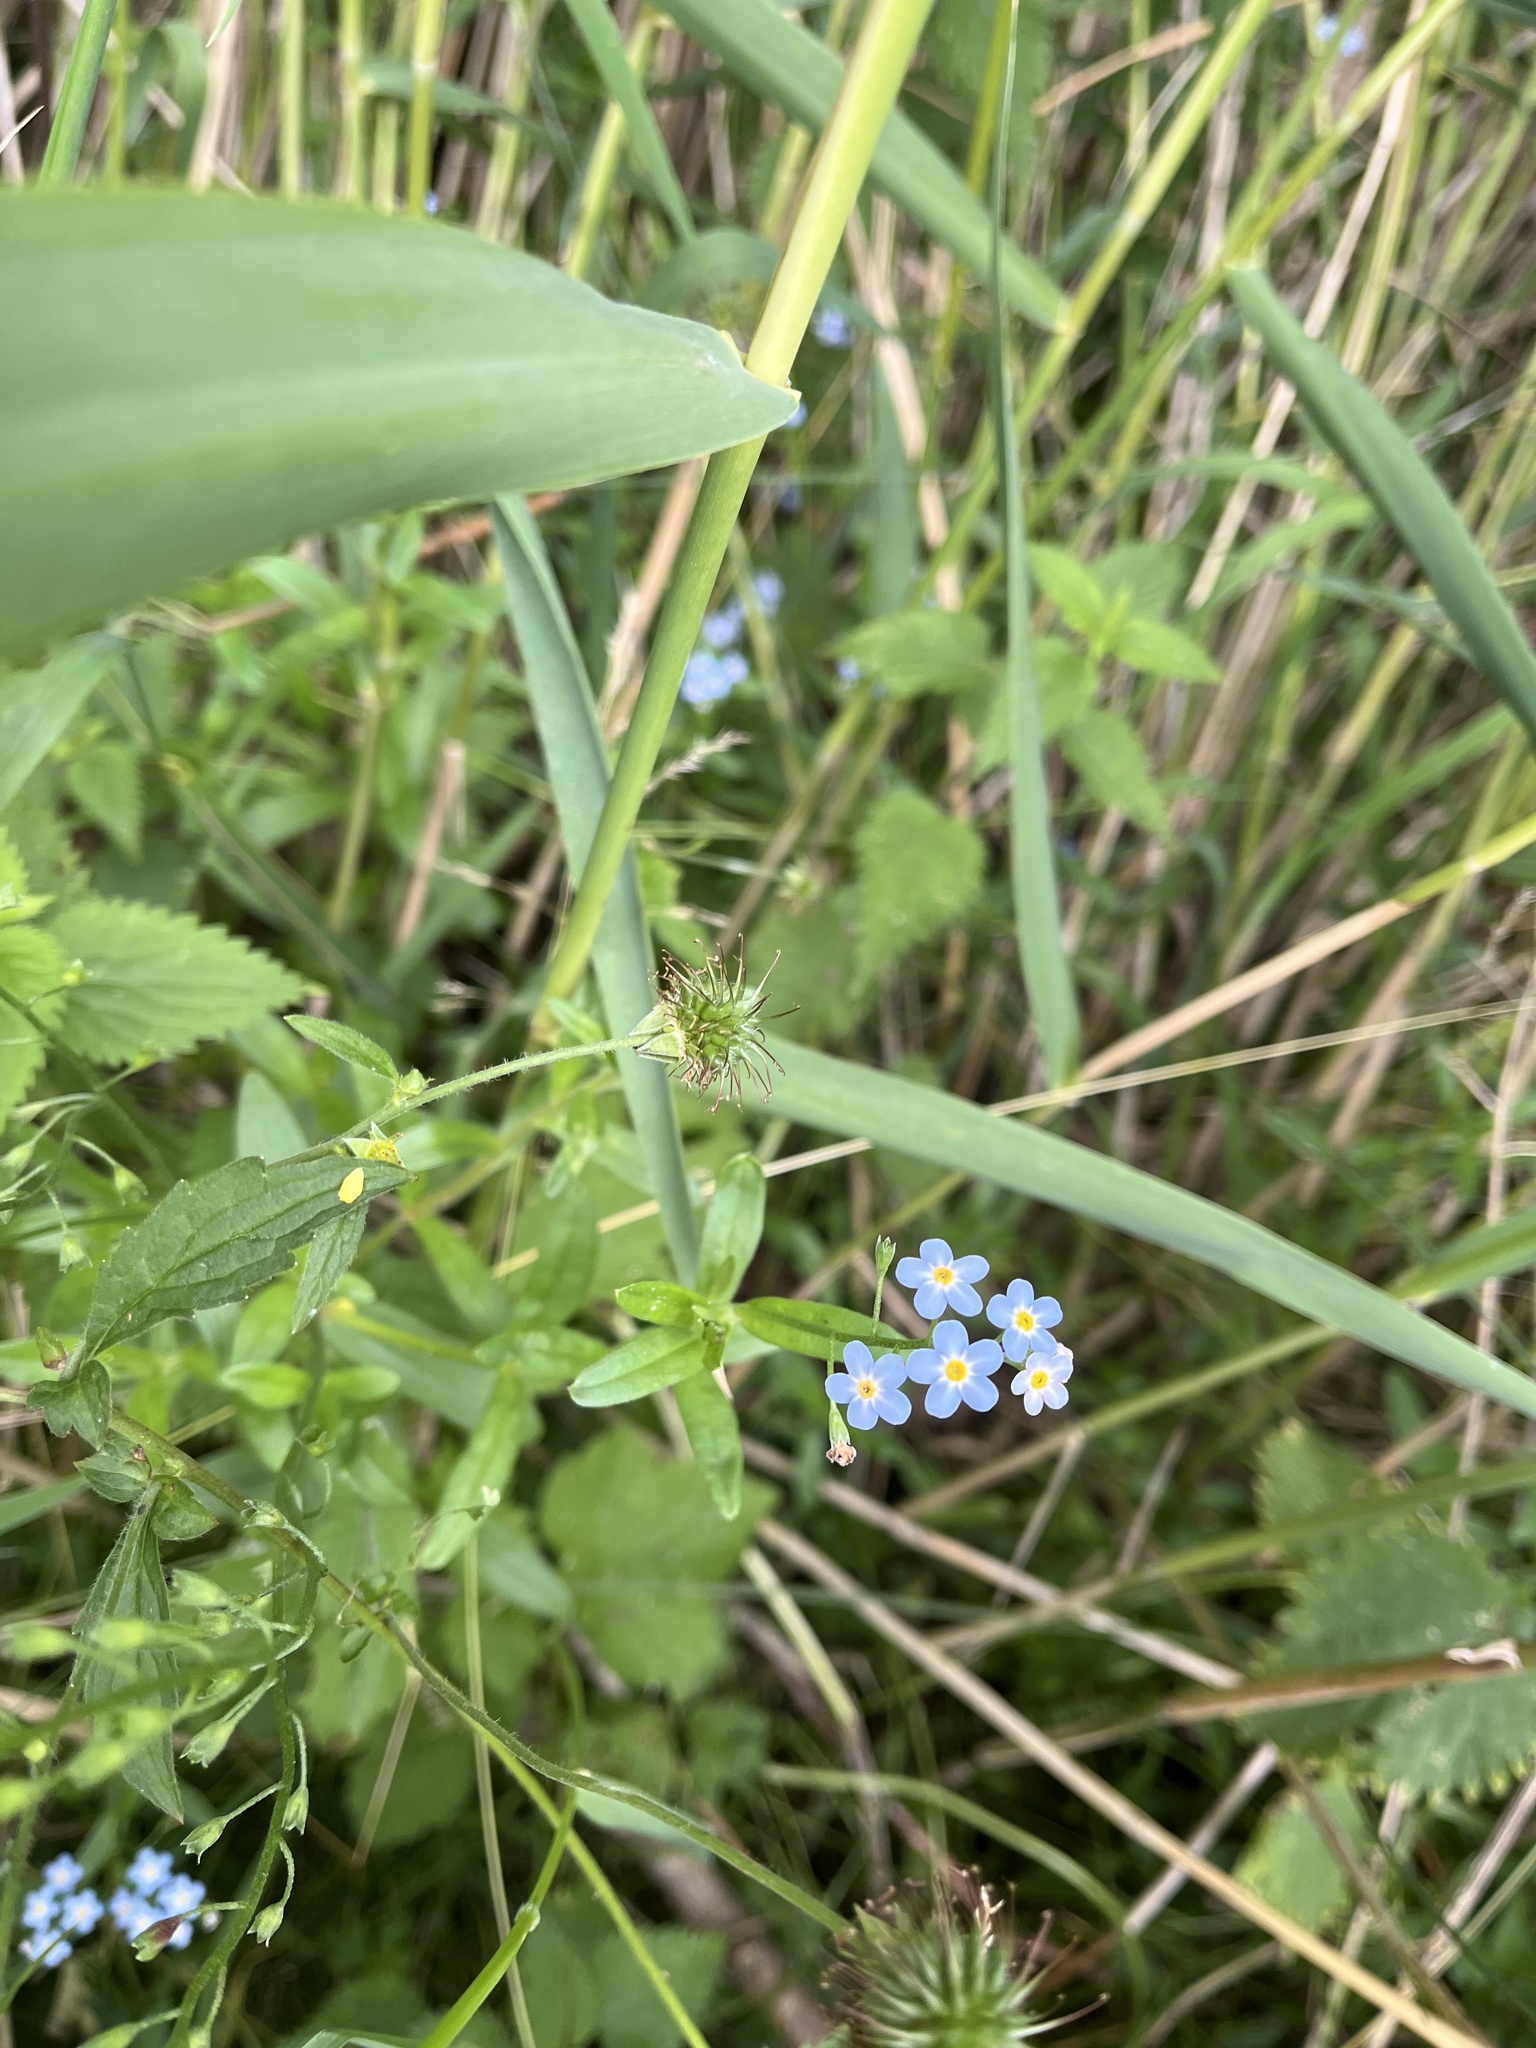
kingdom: Plantae
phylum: Tracheophyta
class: Magnoliopsida
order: Boraginales
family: Boraginaceae
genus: Myosotis
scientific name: Myosotis scorpioides
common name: Water forget-me-not
